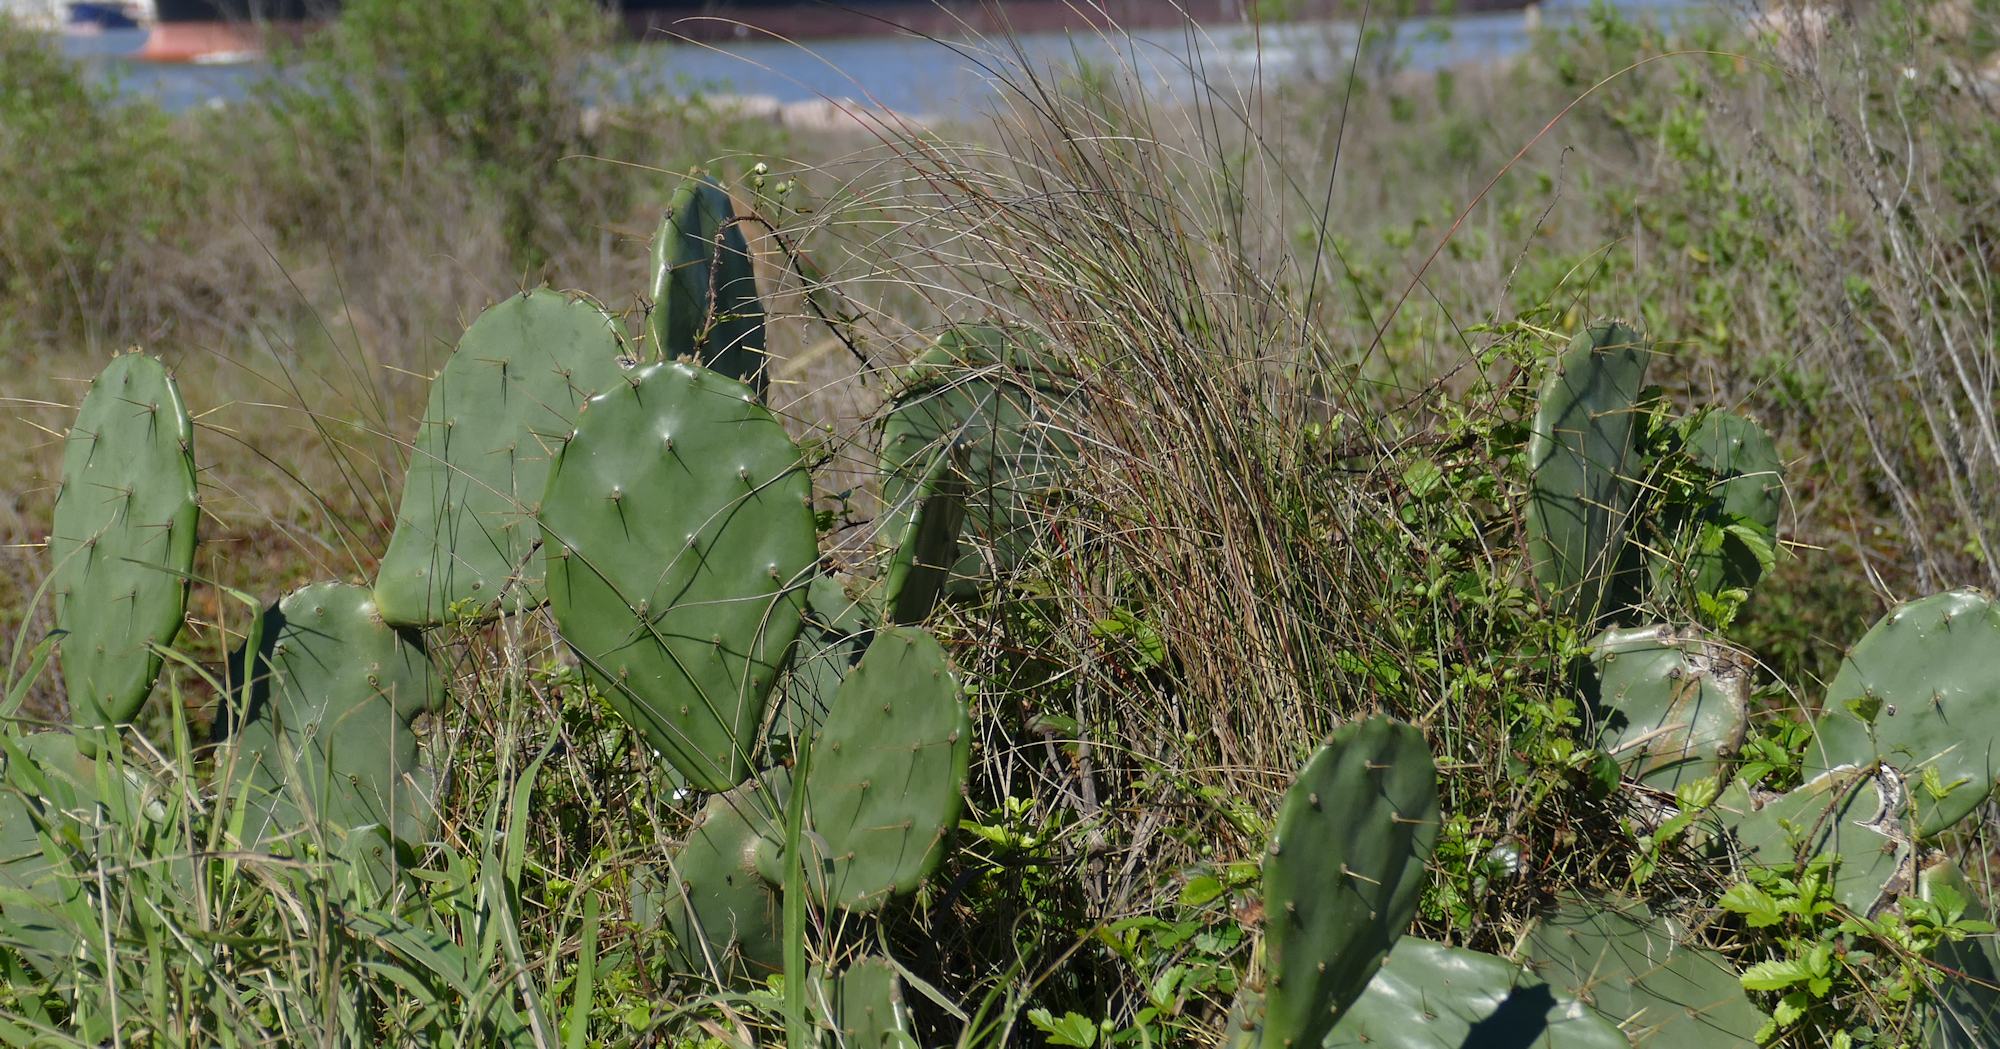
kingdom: Plantae
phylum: Tracheophyta
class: Magnoliopsida
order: Caryophyllales
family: Cactaceae
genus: Opuntia
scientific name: Opuntia stricta
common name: Erect pricklypear
